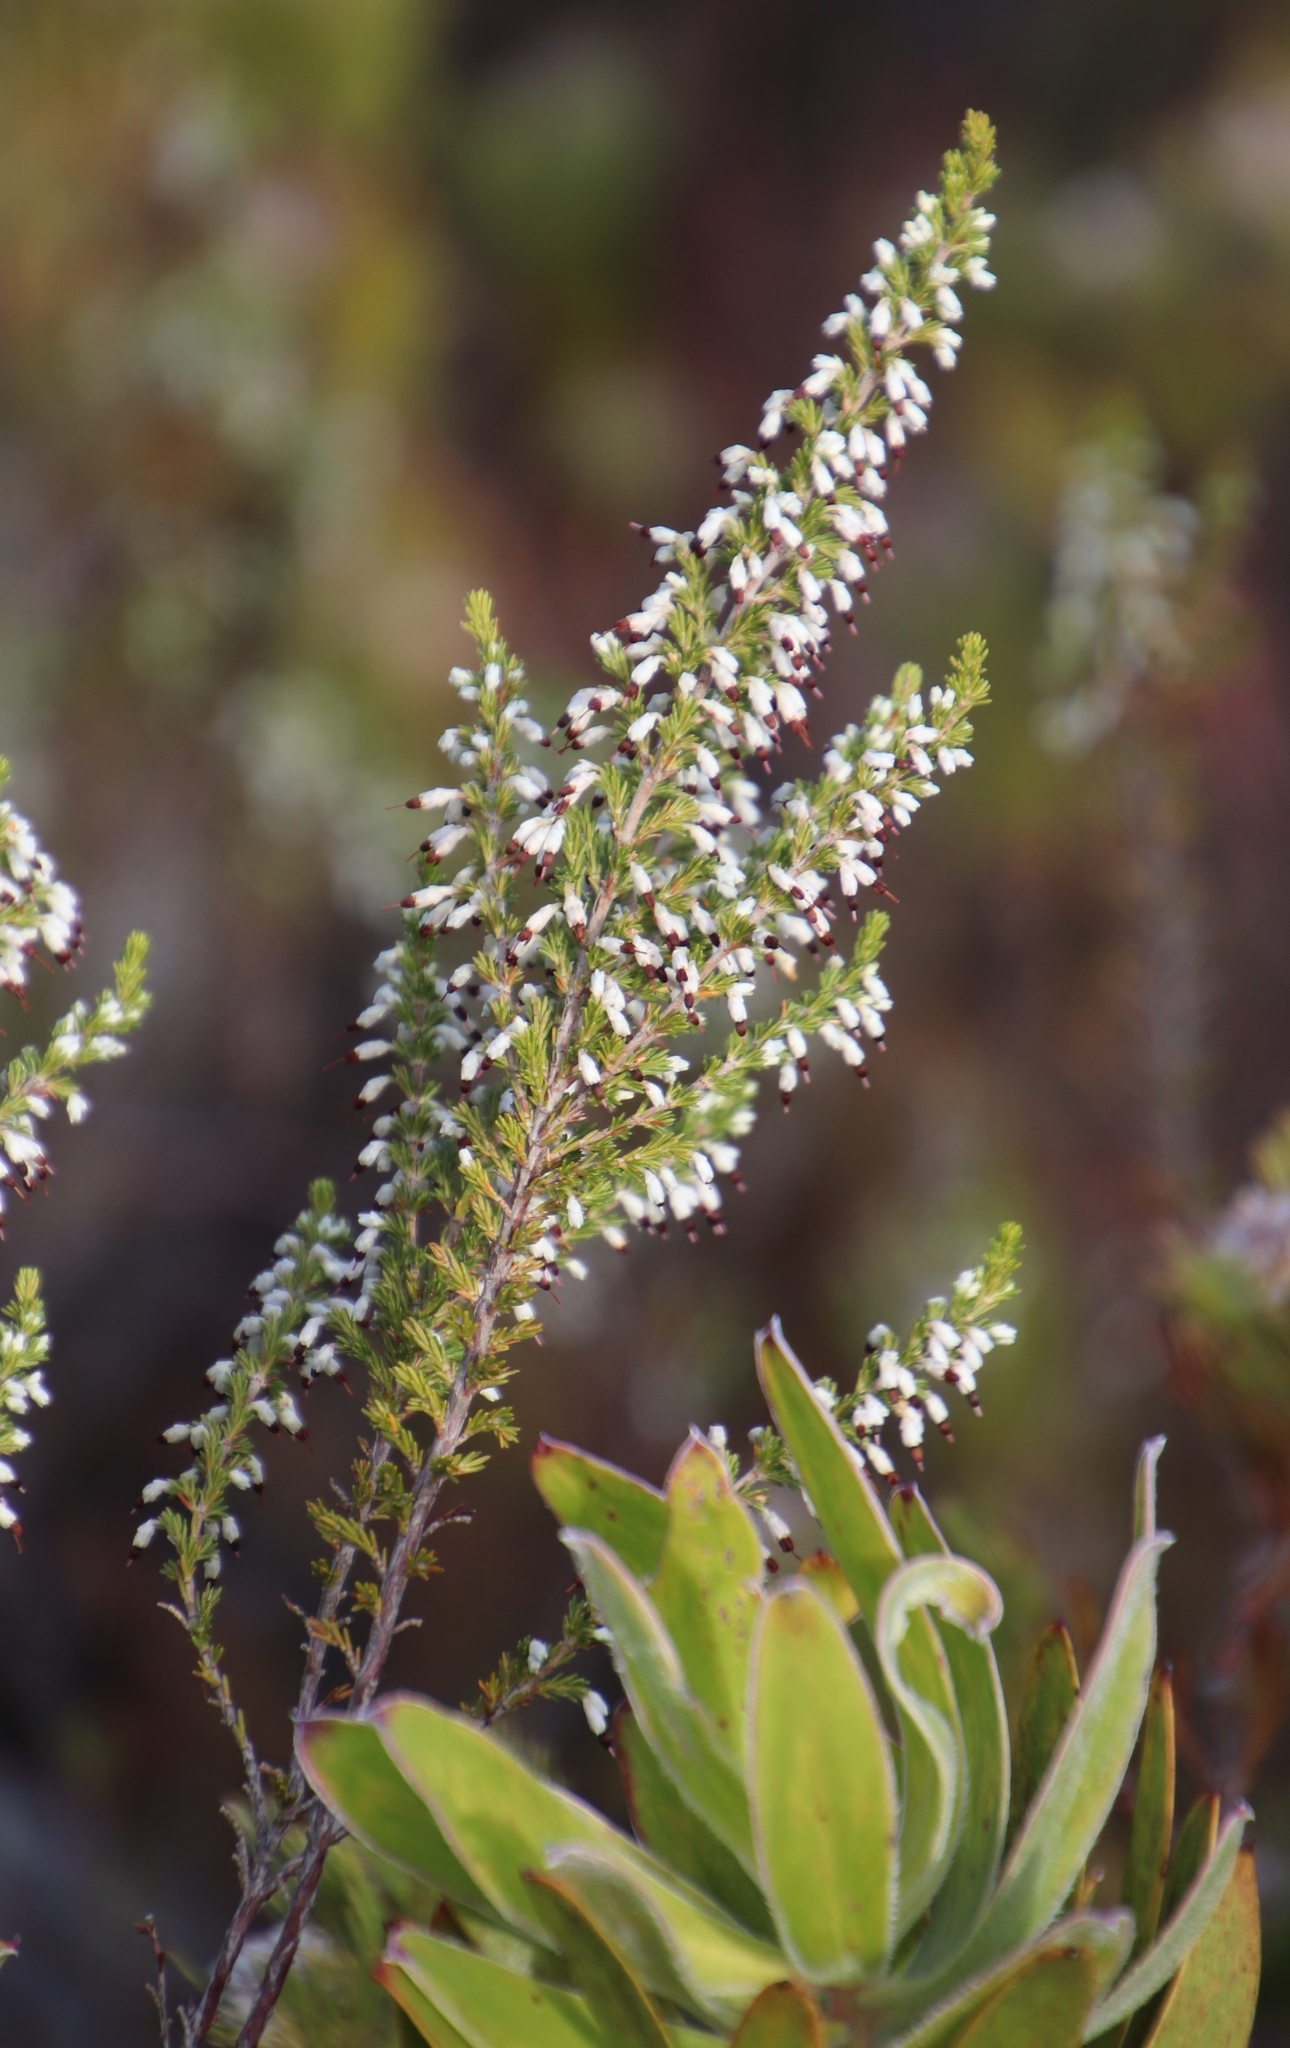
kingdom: Plantae
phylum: Tracheophyta
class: Magnoliopsida
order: Ericales
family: Ericaceae
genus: Erica
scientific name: Erica imbricata
